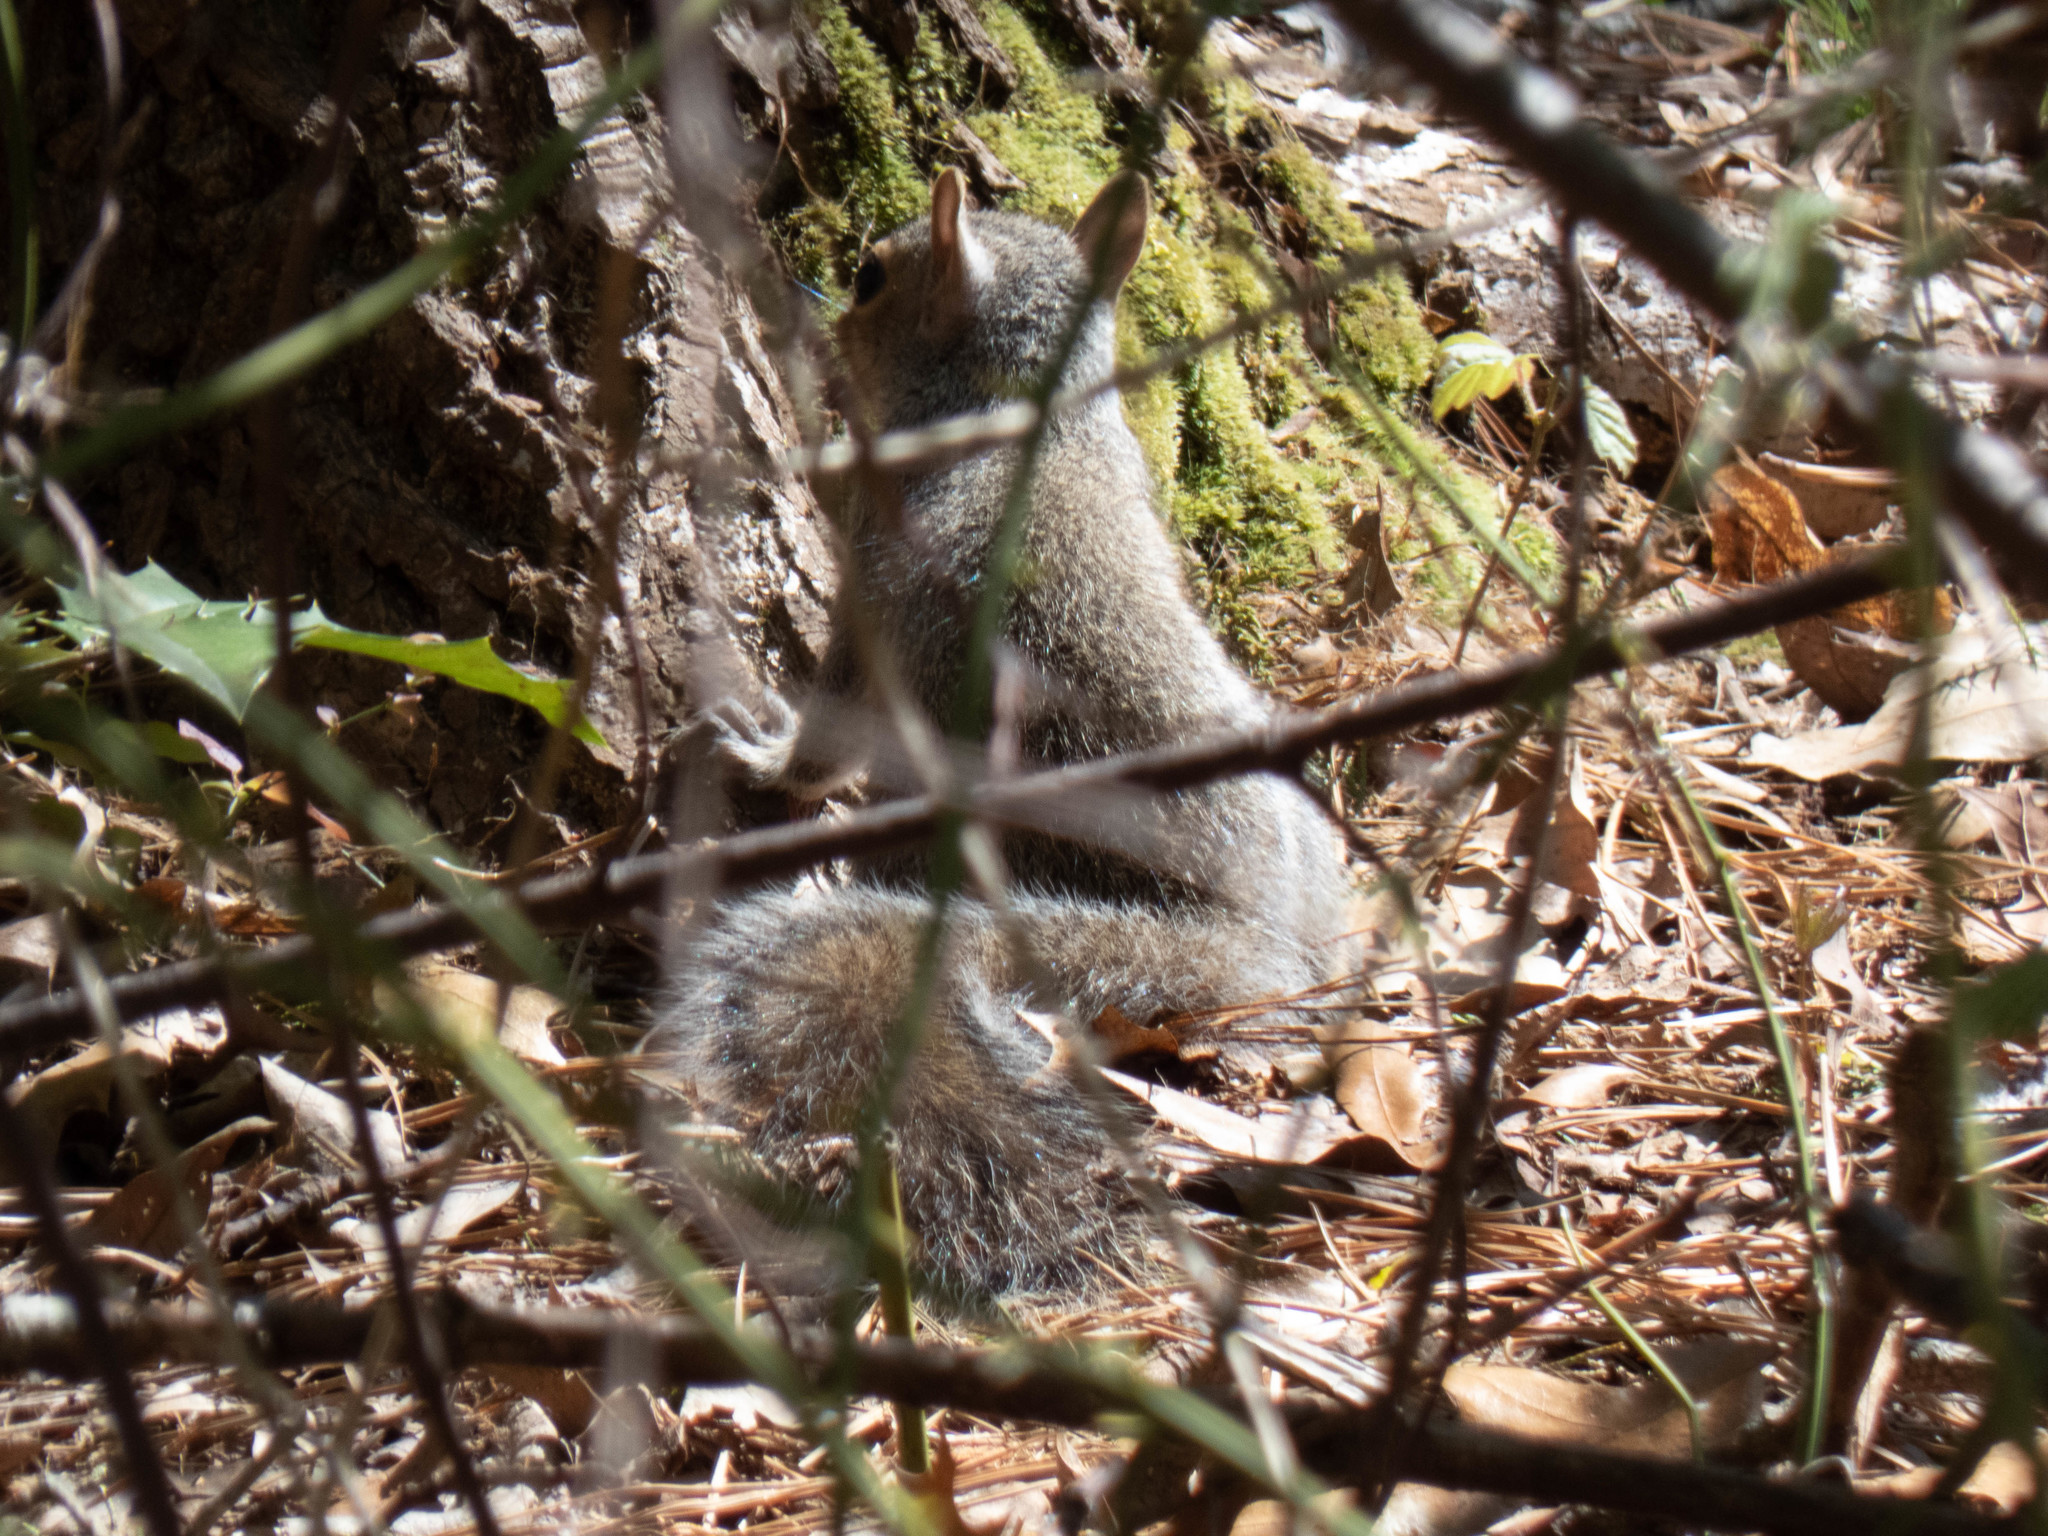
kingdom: Animalia
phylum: Chordata
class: Mammalia
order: Rodentia
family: Sciuridae
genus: Sciurus
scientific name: Sciurus carolinensis
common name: Eastern gray squirrel
